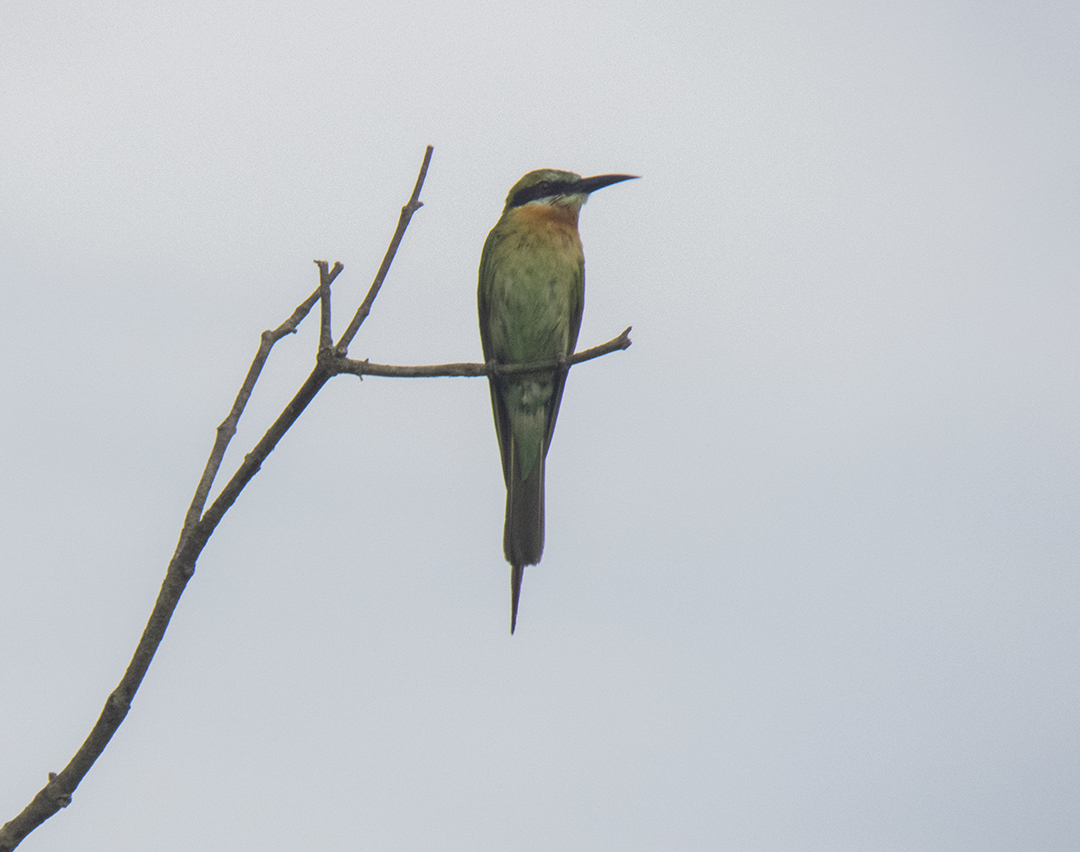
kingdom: Animalia
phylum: Chordata
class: Aves
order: Coraciiformes
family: Meropidae
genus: Merops
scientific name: Merops philippinus
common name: Blue-tailed bee-eater
